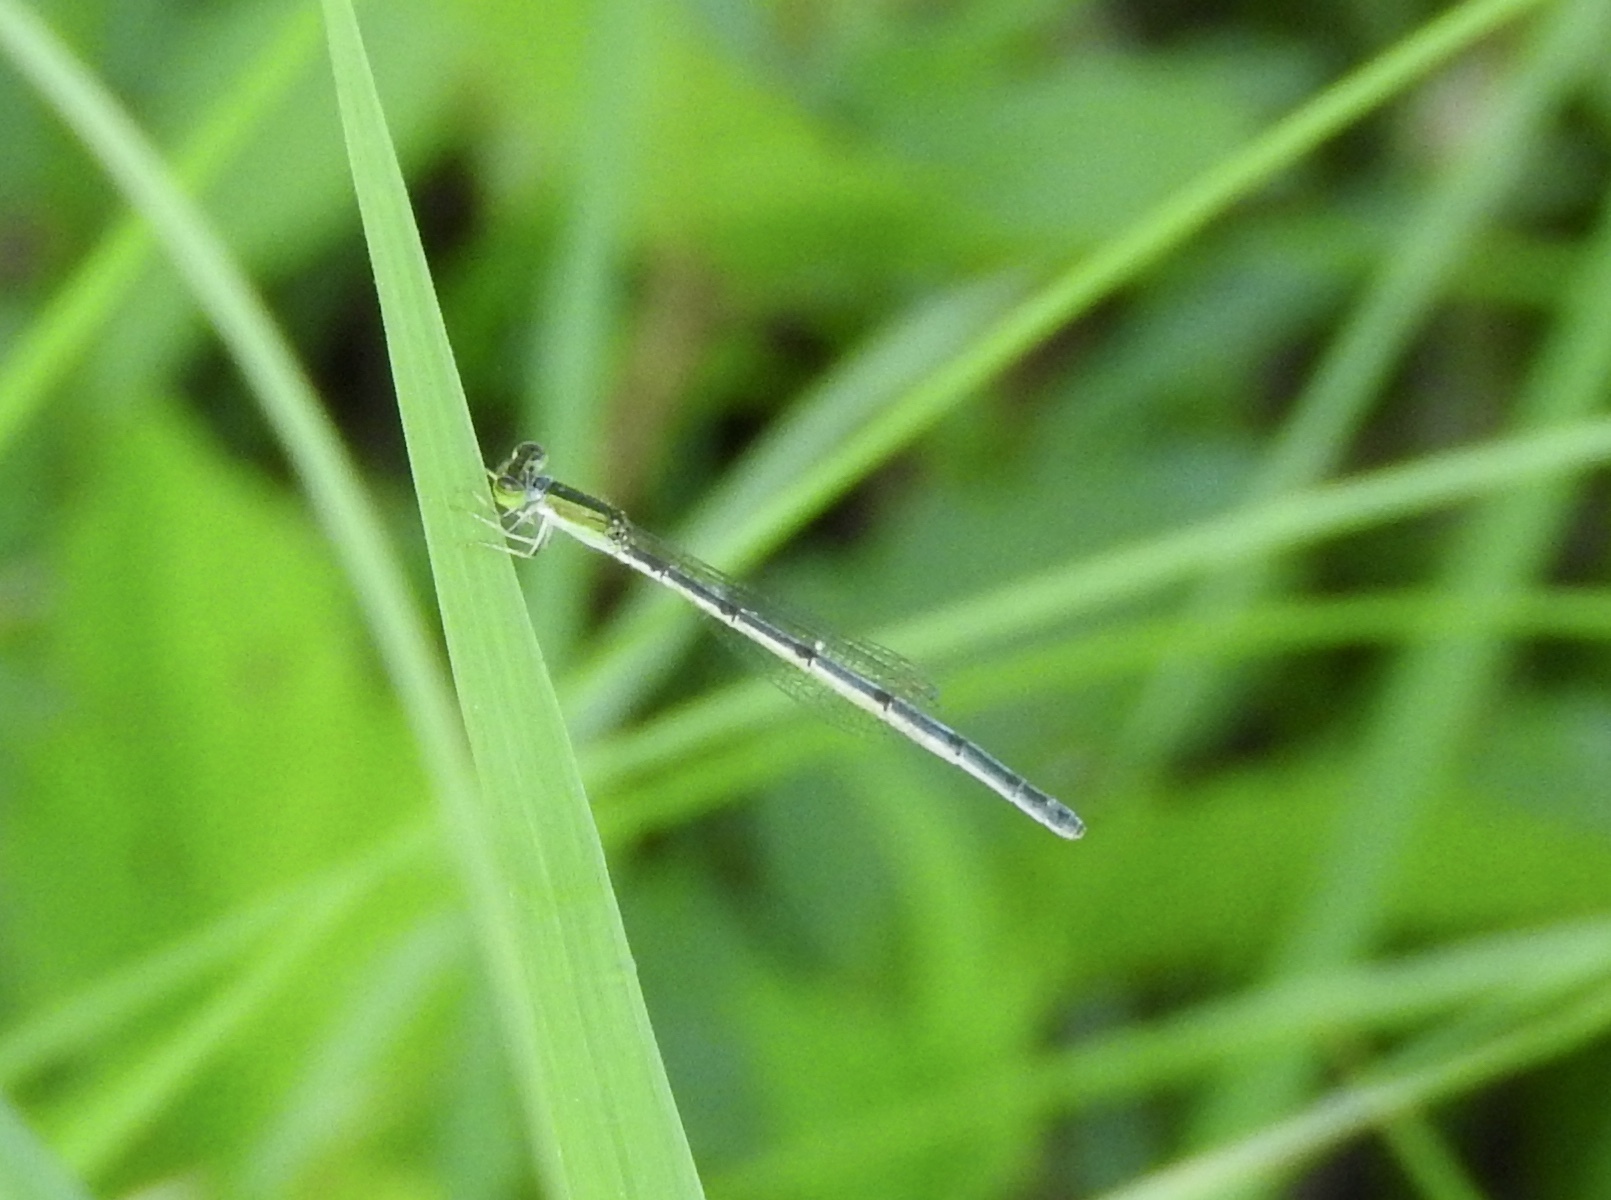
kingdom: Animalia
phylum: Arthropoda
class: Insecta
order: Odonata
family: Coenagrionidae
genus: Ischnura
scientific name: Ischnura hastata
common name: Citrine forktail
